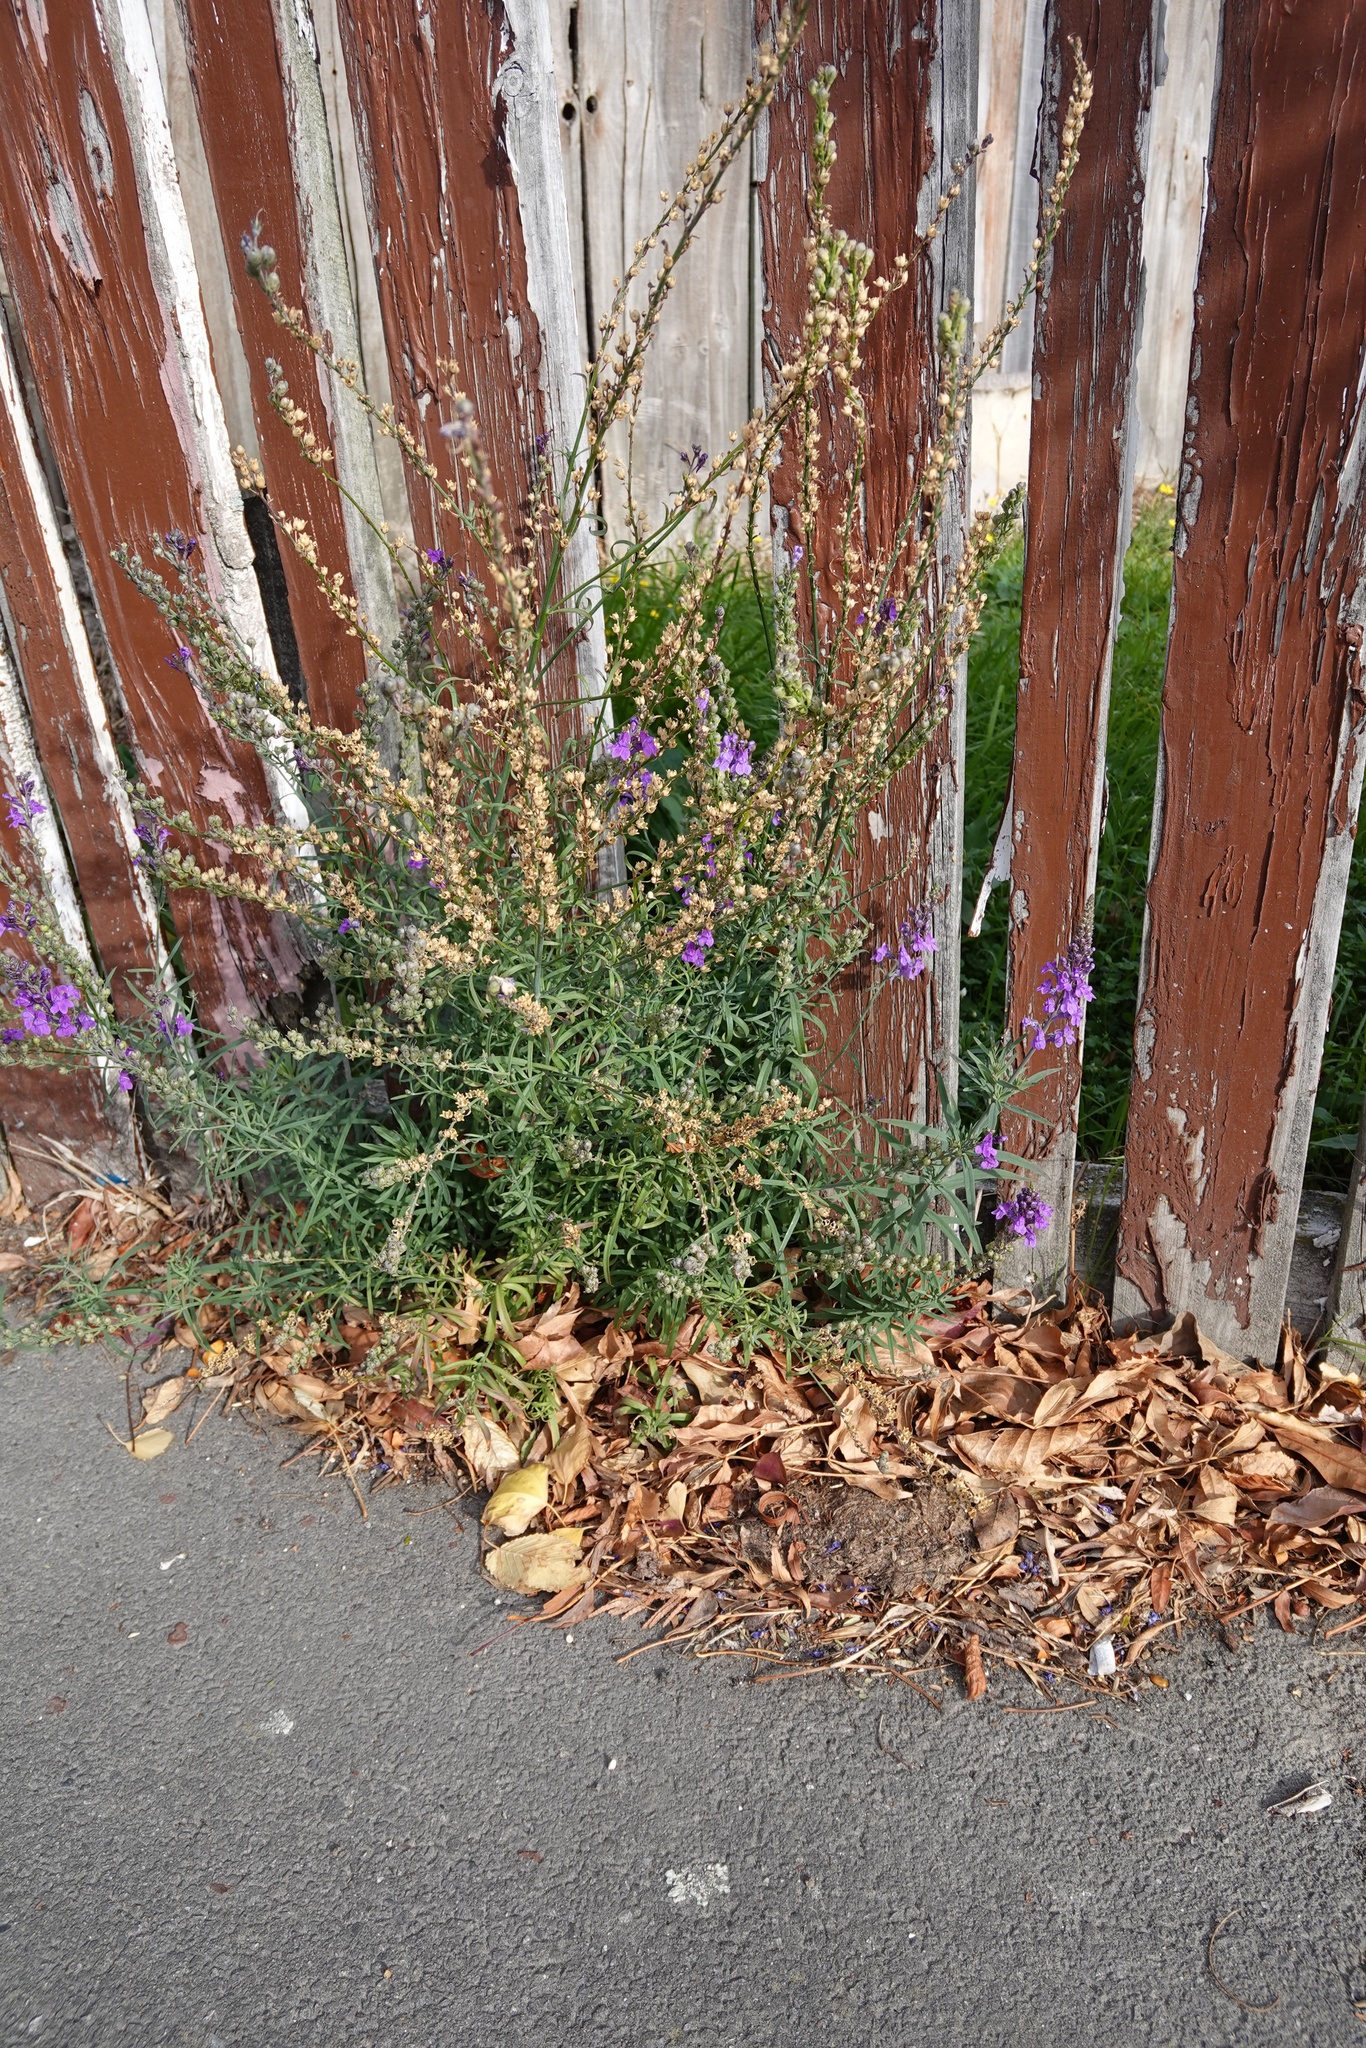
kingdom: Plantae
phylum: Tracheophyta
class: Magnoliopsida
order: Lamiales
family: Plantaginaceae
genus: Linaria
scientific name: Linaria purpurea
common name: Purple toadflax
